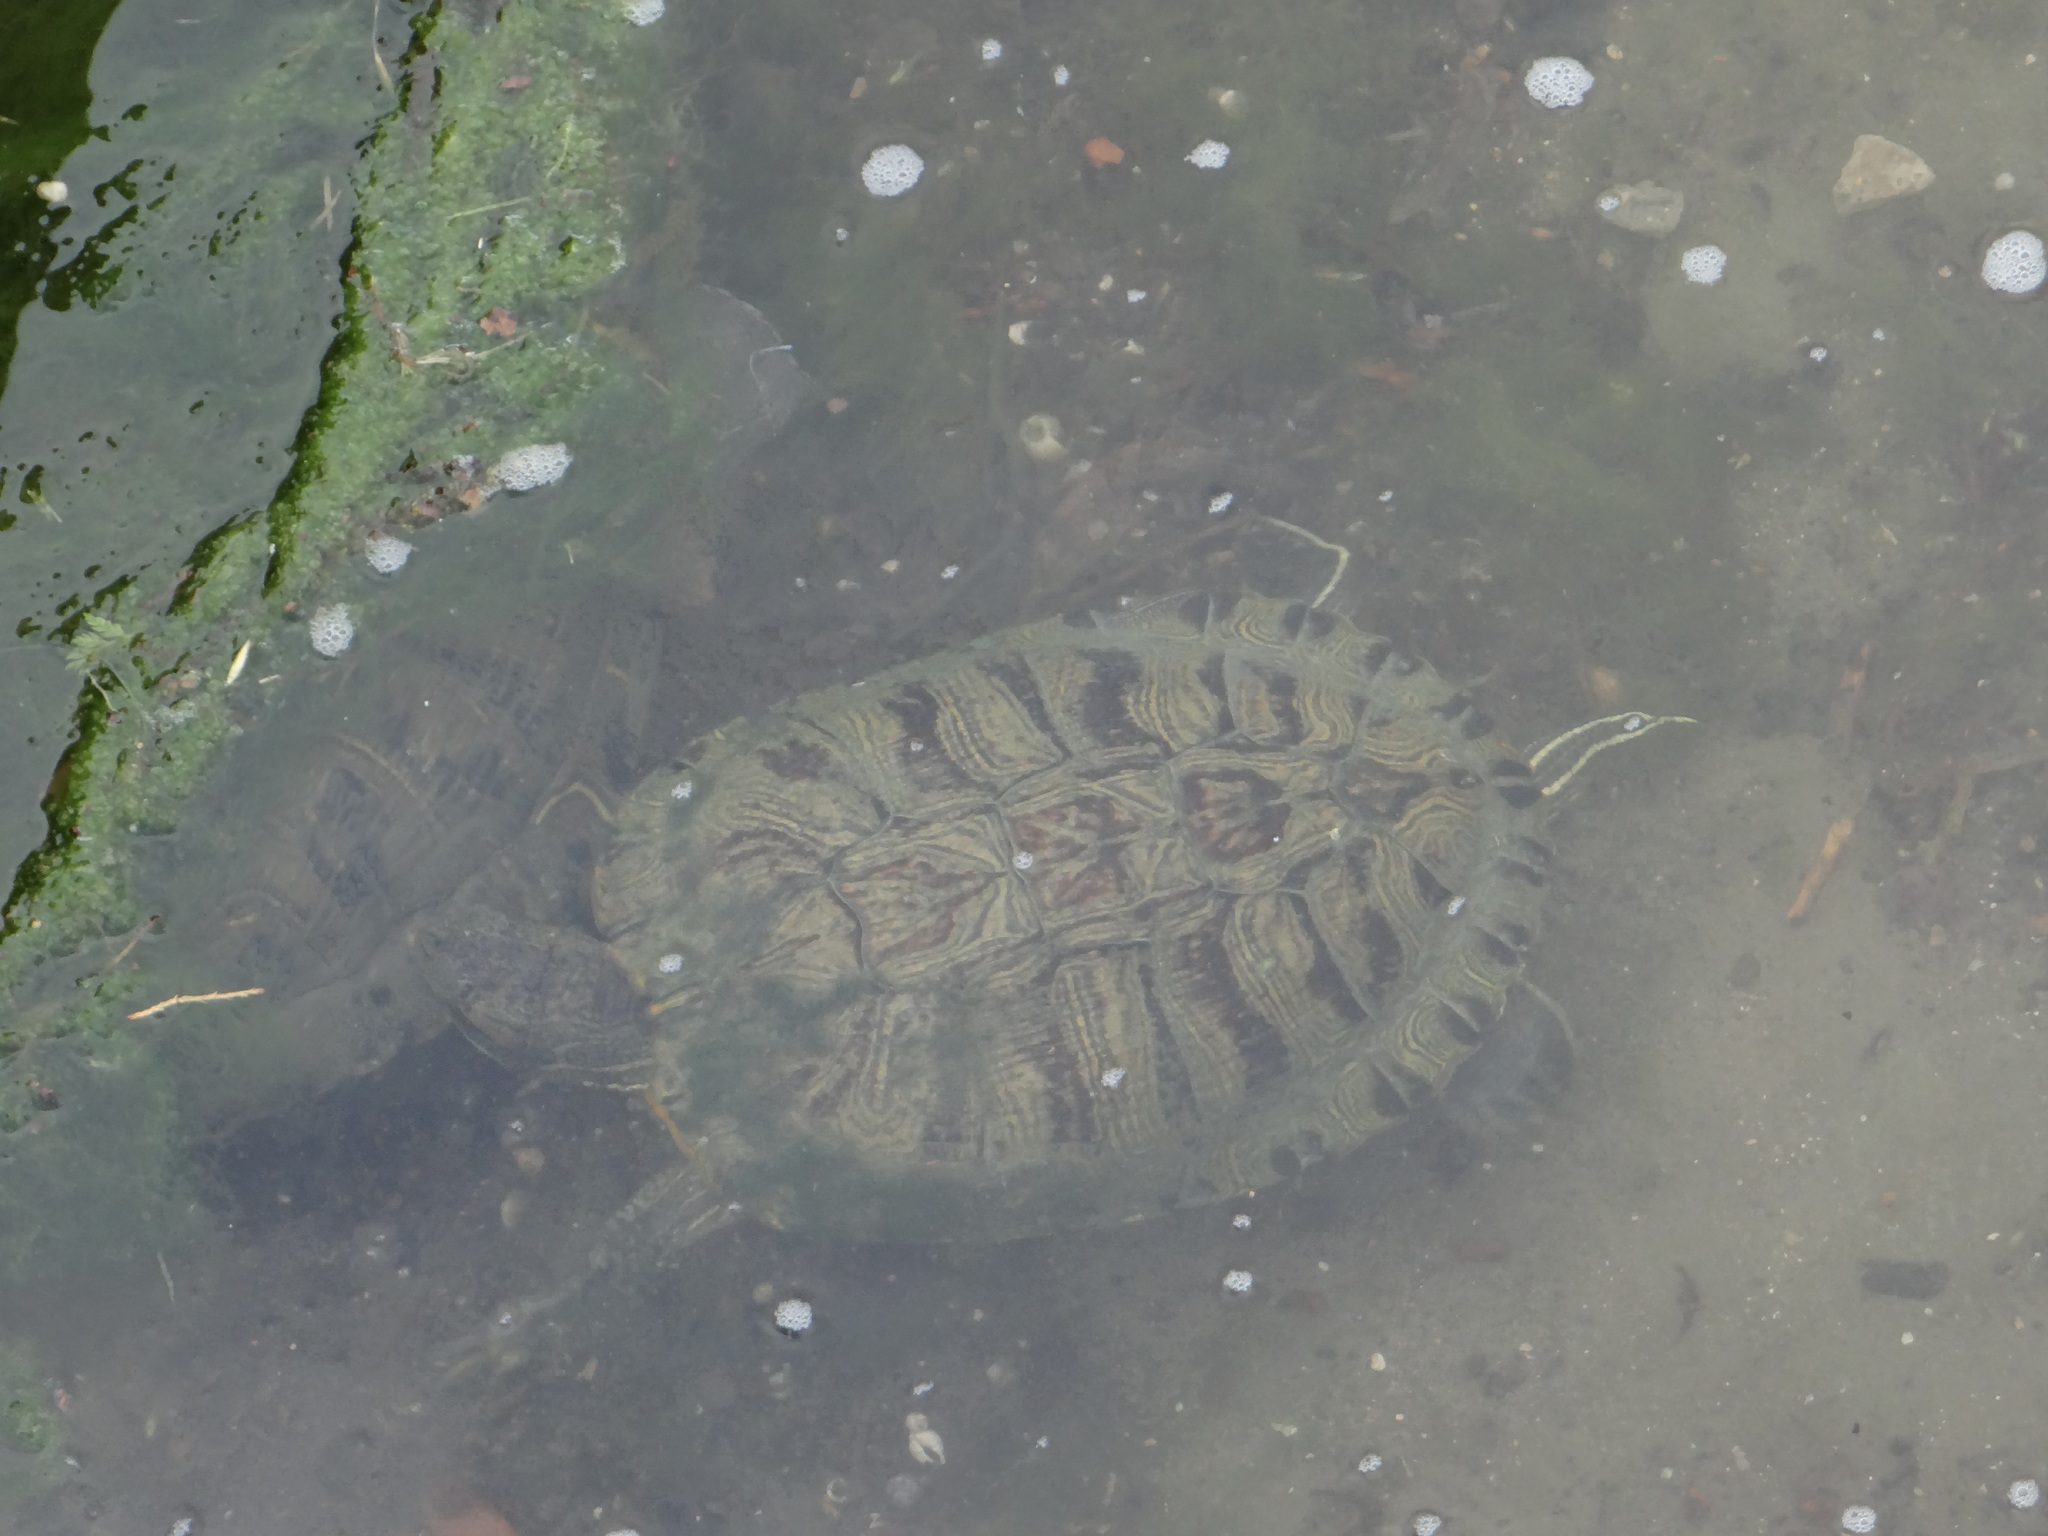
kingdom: Animalia
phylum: Chordata
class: Testudines
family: Emydidae
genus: Trachemys
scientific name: Trachemys scripta
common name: Slider
